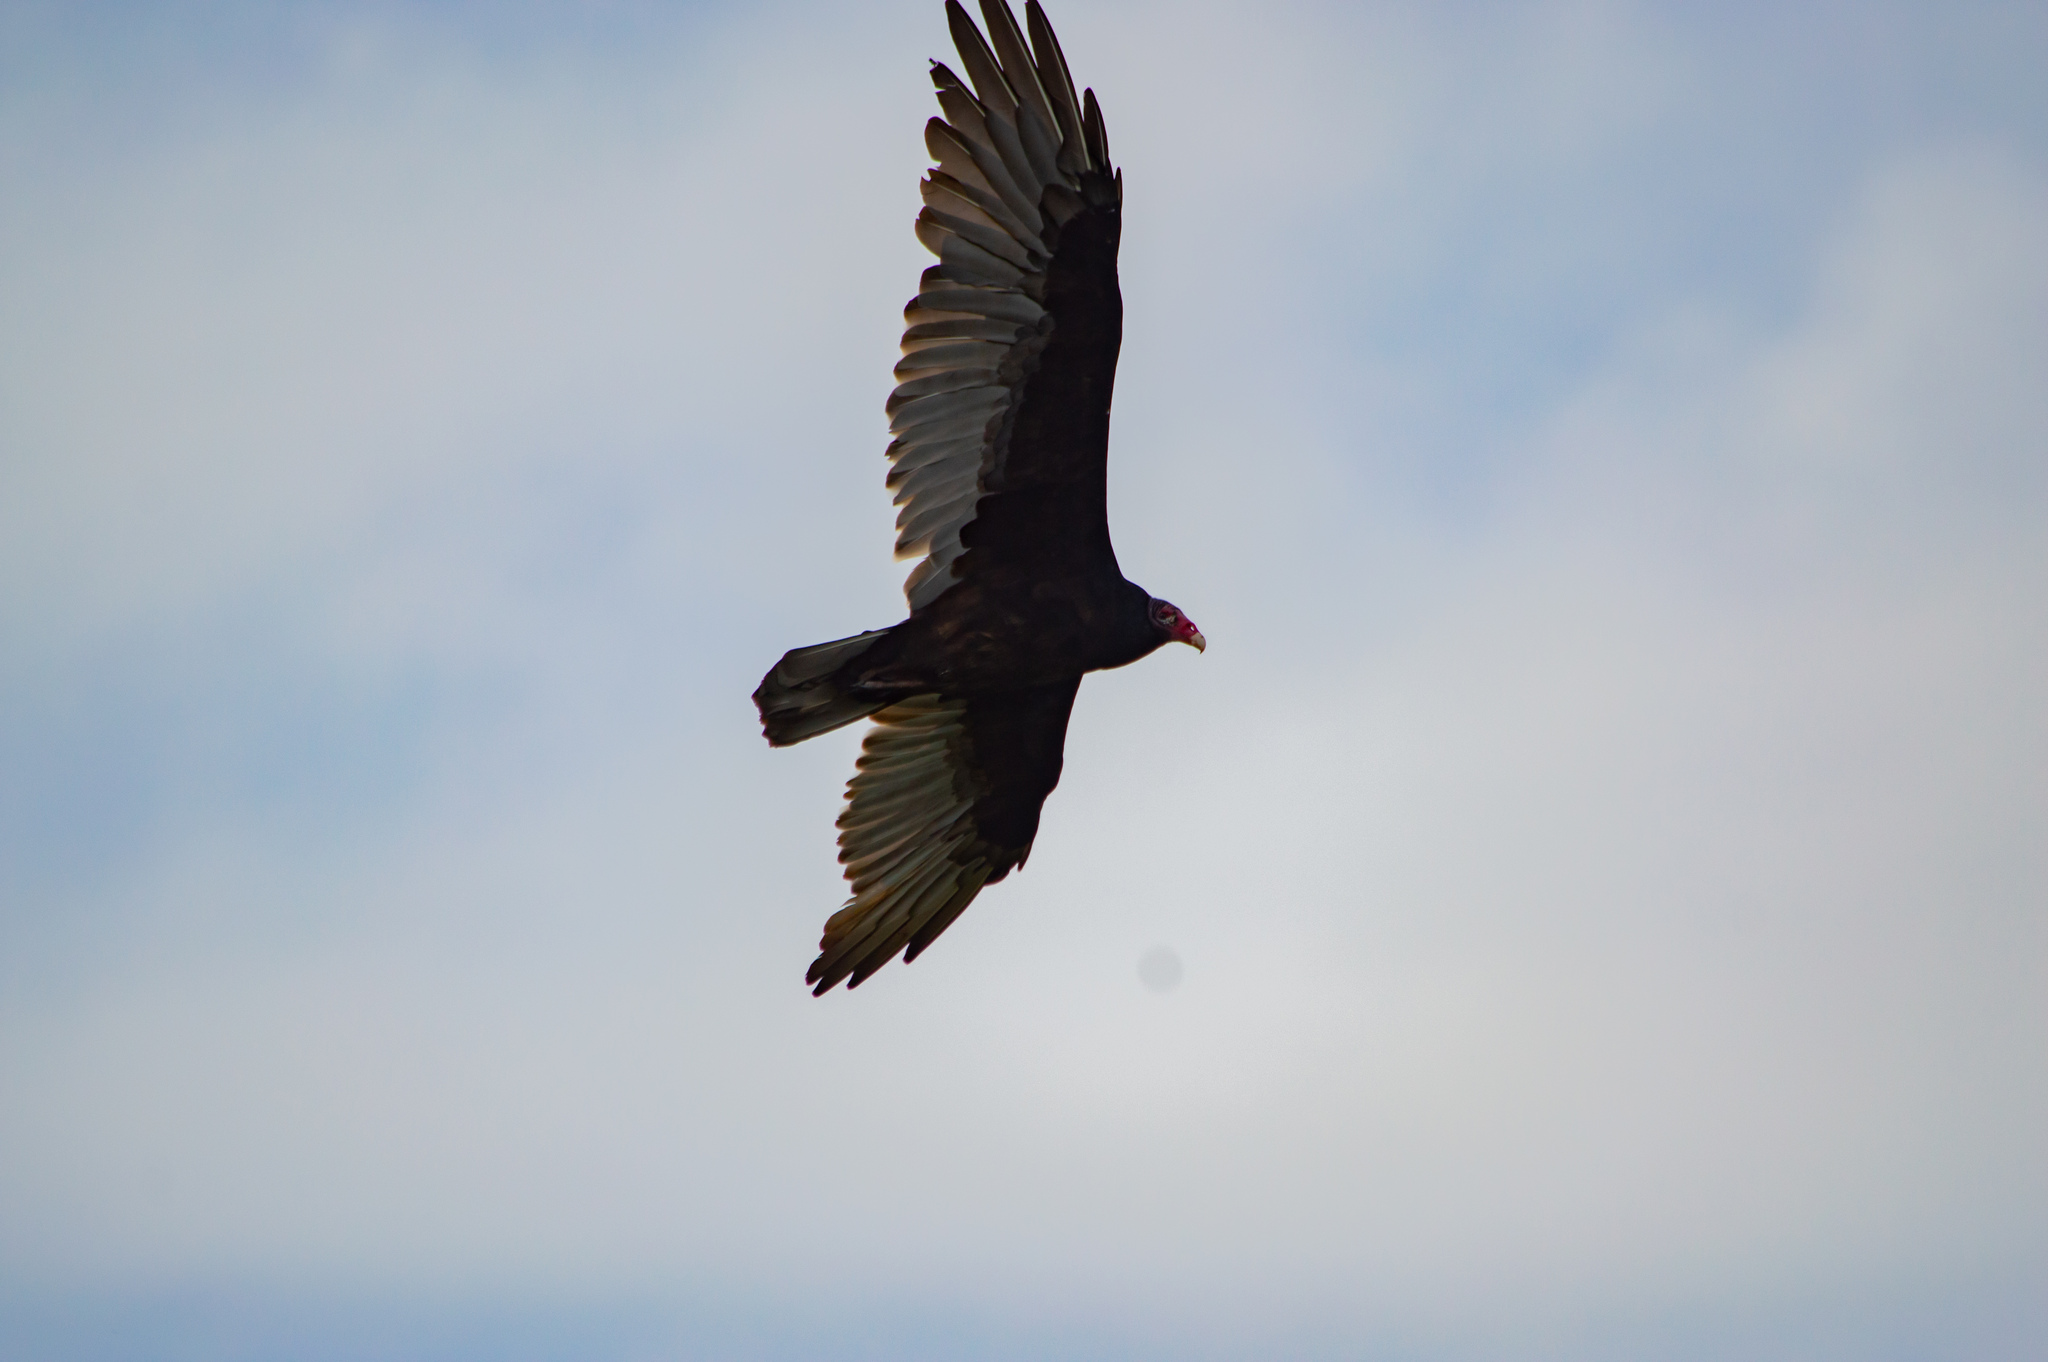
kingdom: Animalia
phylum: Chordata
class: Aves
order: Accipitriformes
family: Cathartidae
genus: Cathartes
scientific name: Cathartes aura
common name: Turkey vulture
